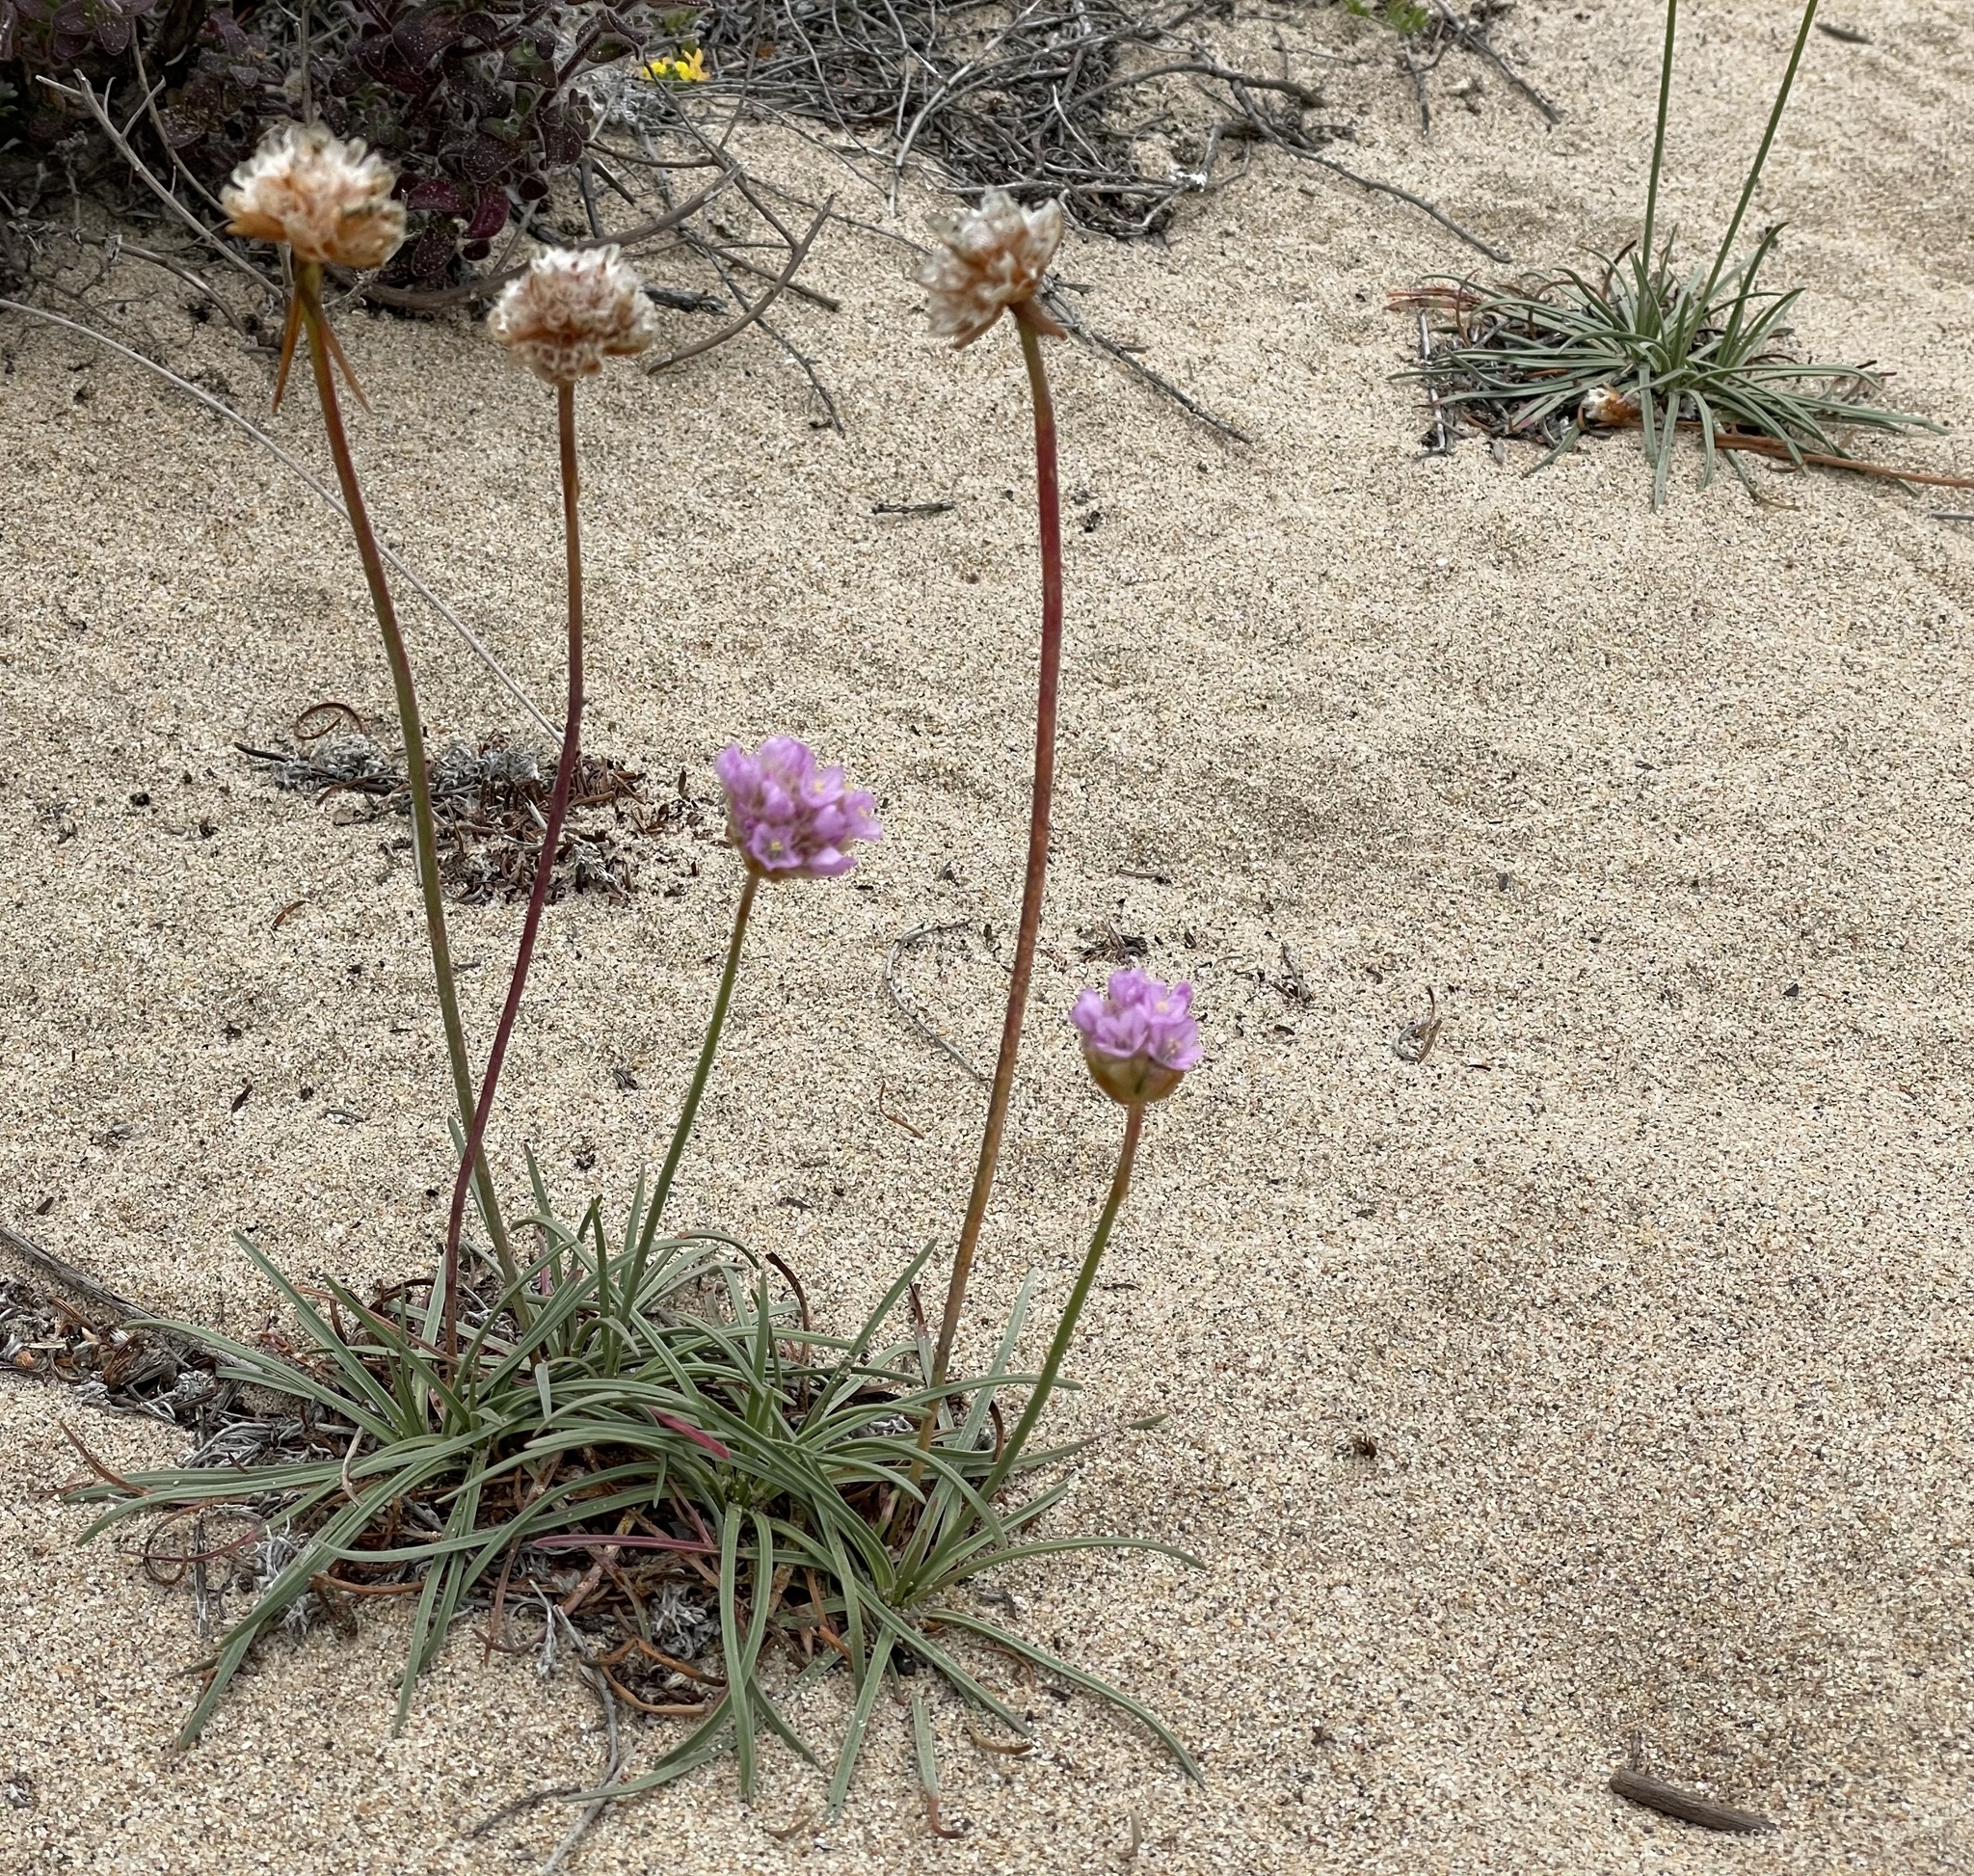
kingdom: Plantae
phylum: Tracheophyta
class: Magnoliopsida
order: Caryophyllales
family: Plumbaginaceae
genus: Armeria
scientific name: Armeria maritima
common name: Thrift
